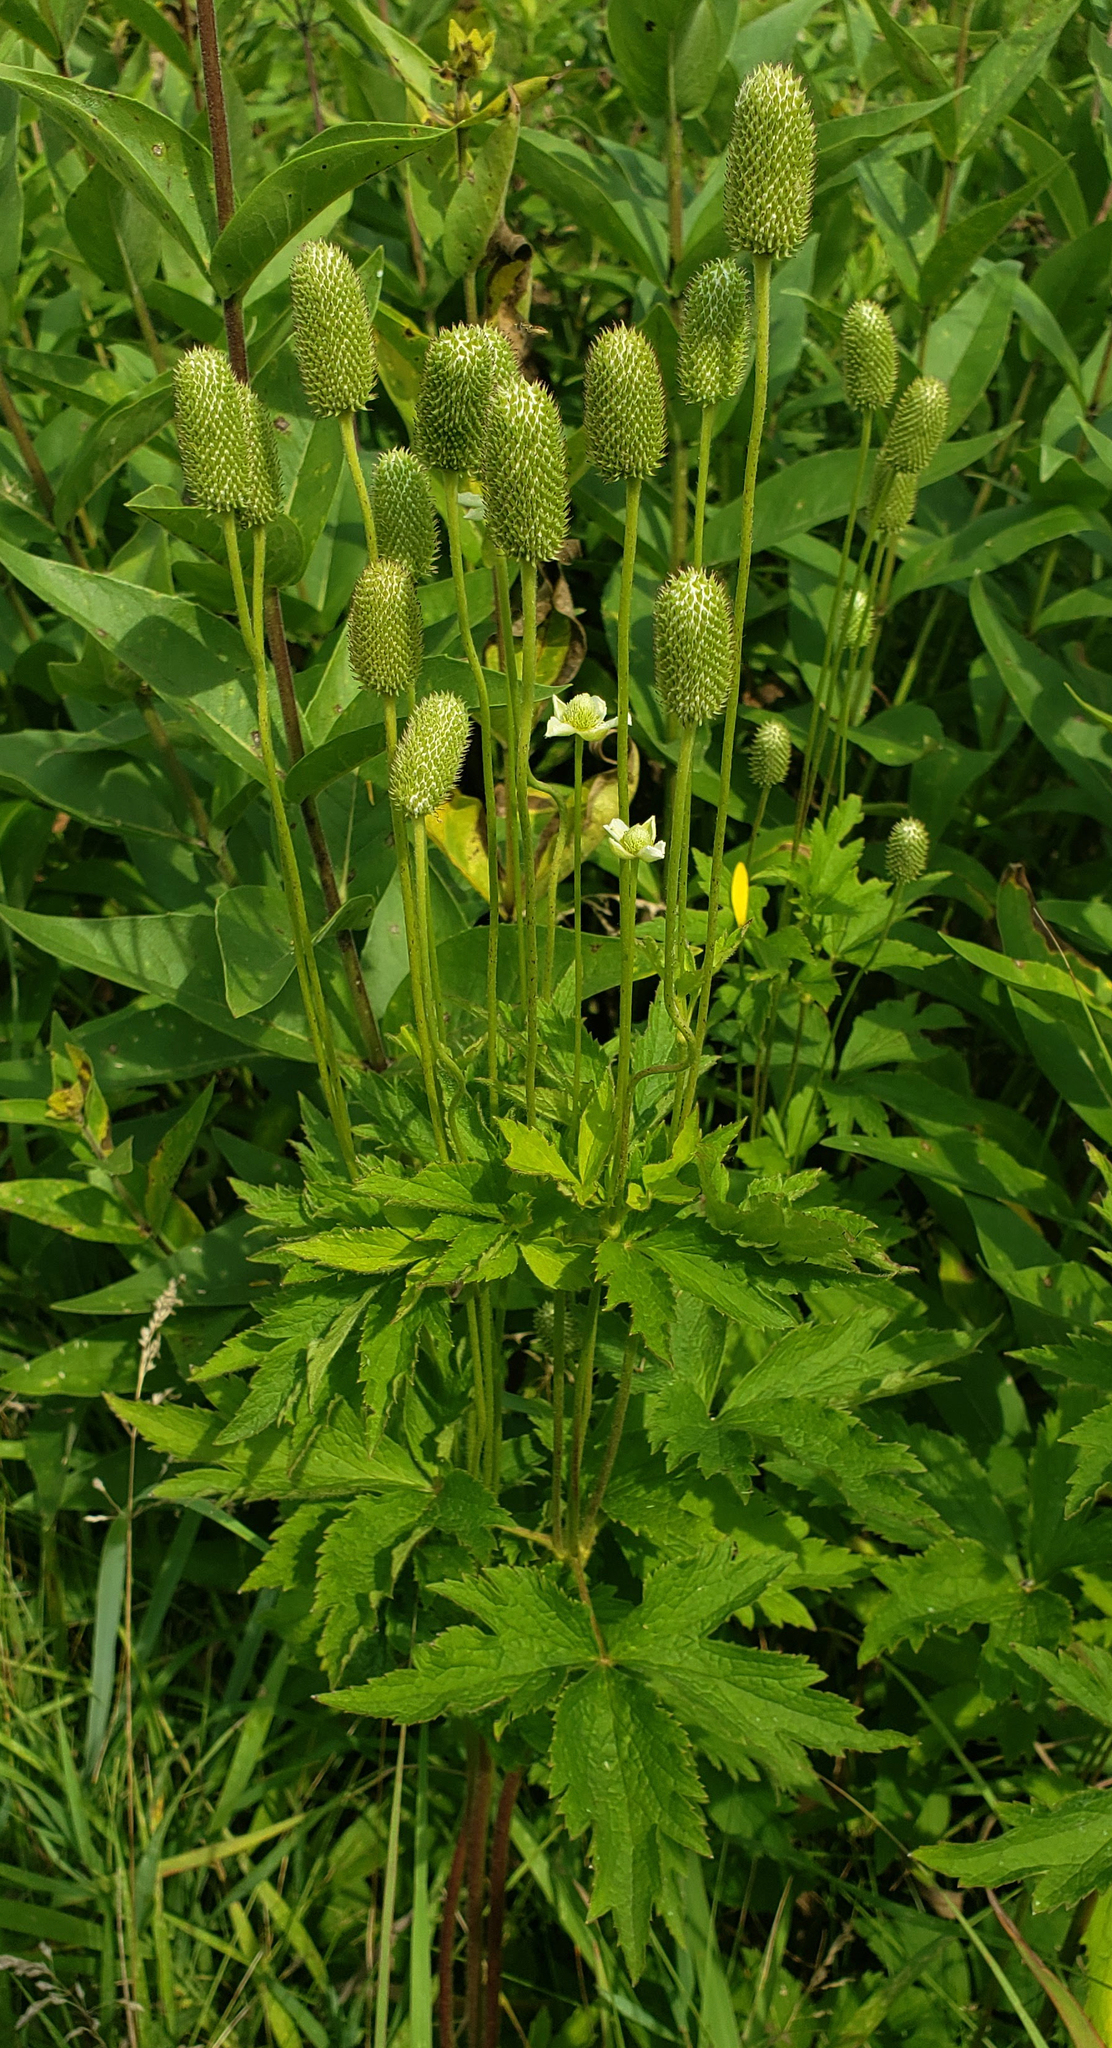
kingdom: Plantae
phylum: Tracheophyta
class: Magnoliopsida
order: Ranunculales
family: Ranunculaceae
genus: Anemone
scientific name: Anemone virginiana
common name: Tall anemone
